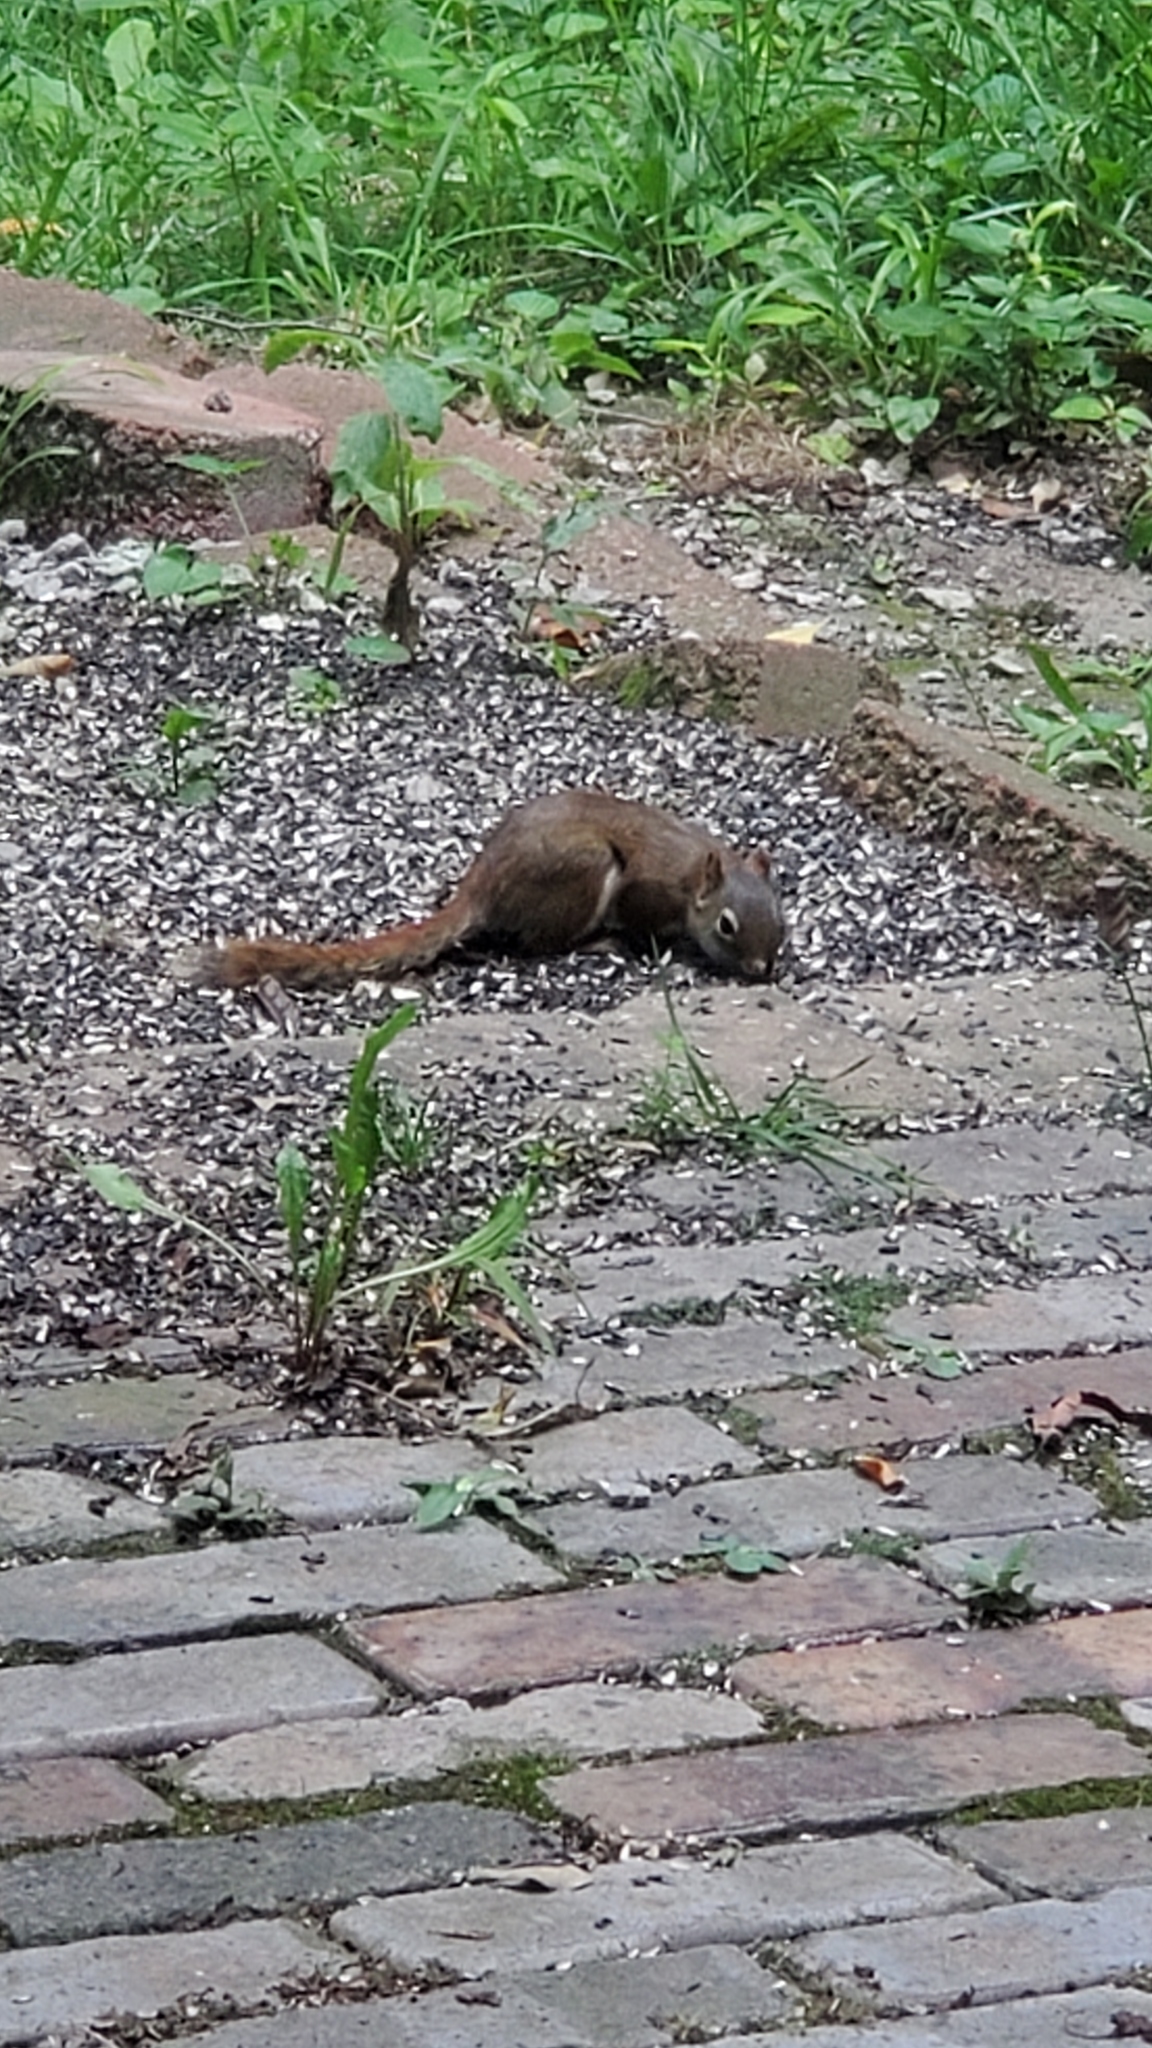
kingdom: Animalia
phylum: Chordata
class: Mammalia
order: Rodentia
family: Sciuridae
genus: Tamiasciurus
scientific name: Tamiasciurus hudsonicus
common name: Red squirrel
